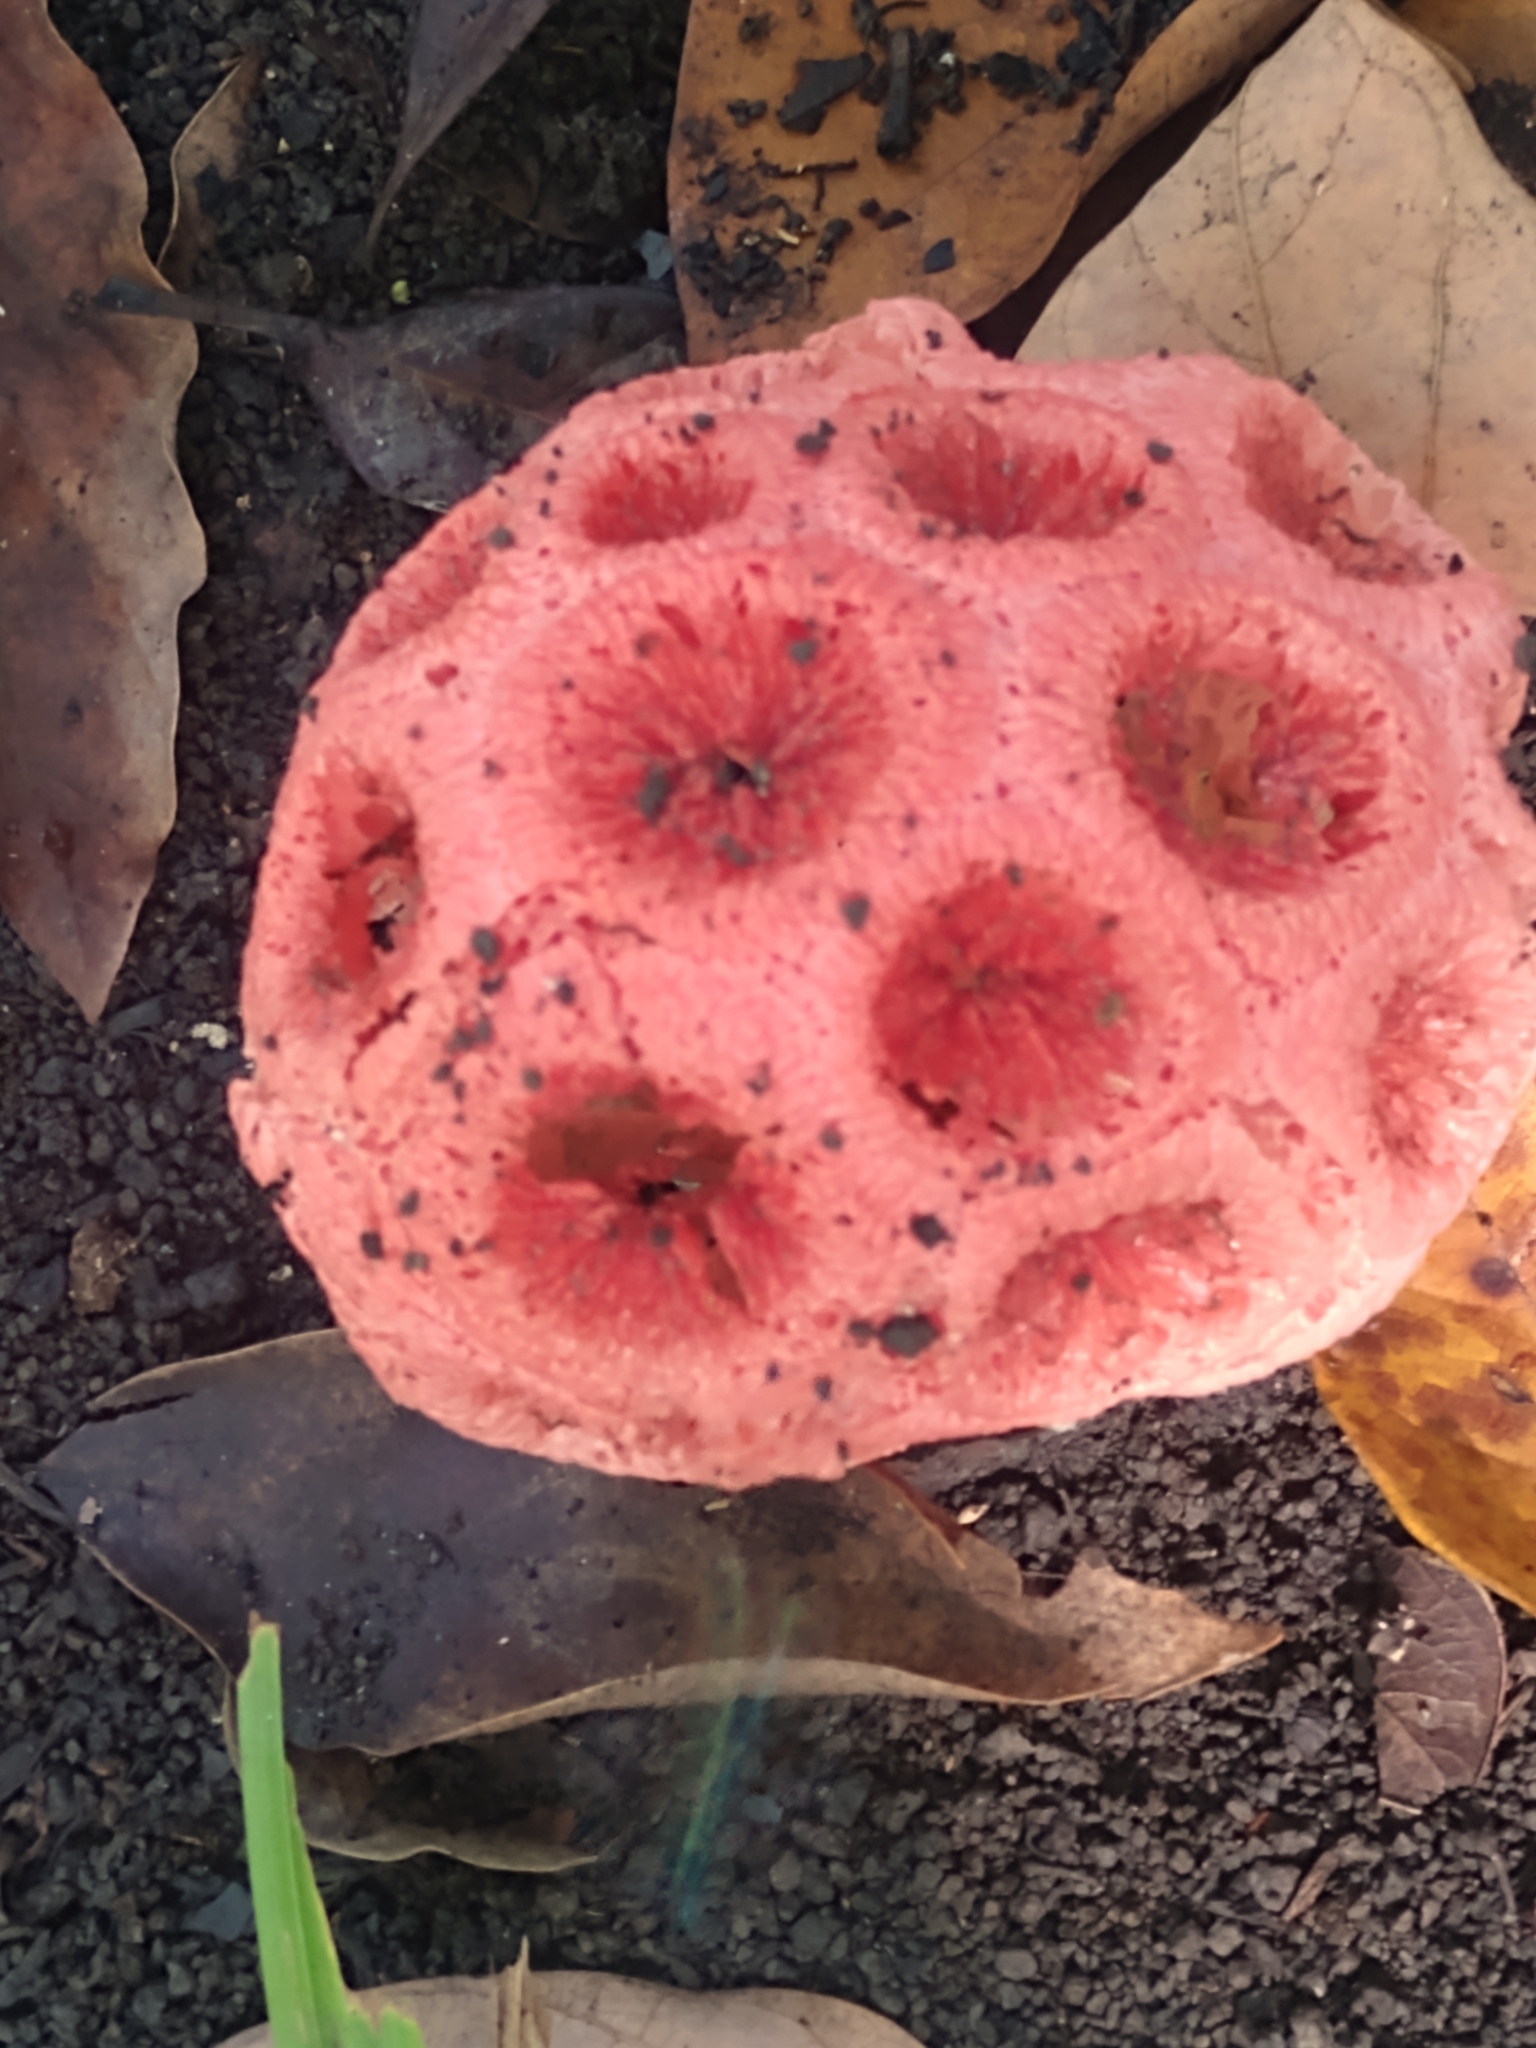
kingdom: Fungi
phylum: Basidiomycota
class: Agaricomycetes
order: Phallales
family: Phallaceae
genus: Clathrus
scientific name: Clathrus crispatus
